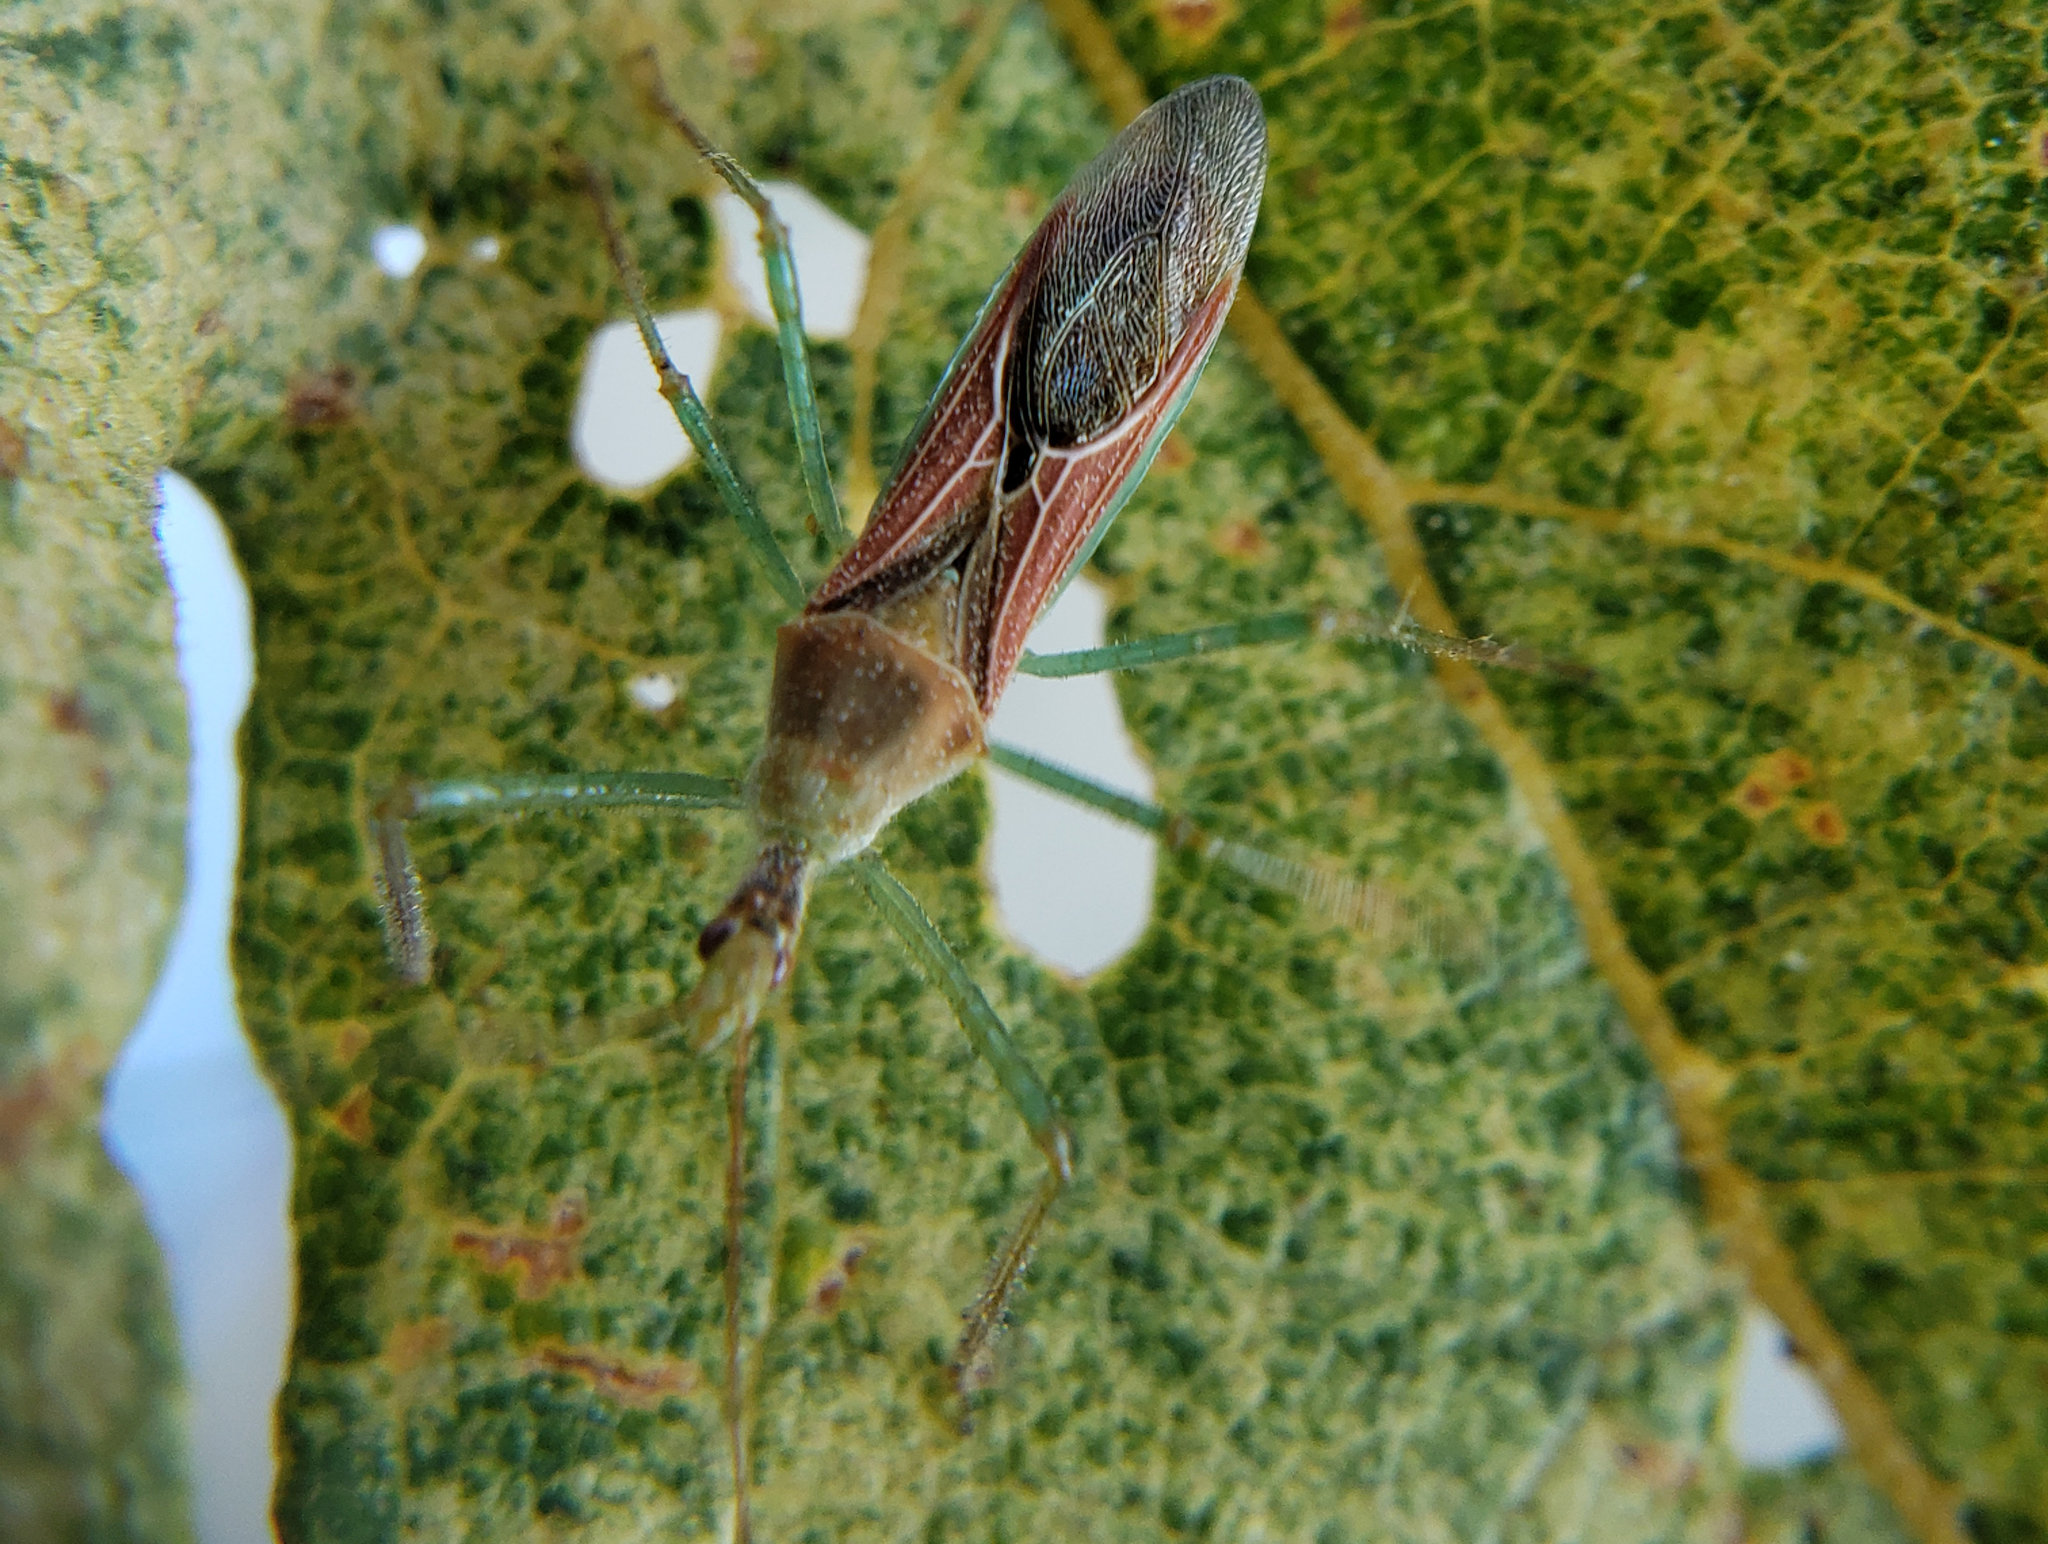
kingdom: Animalia
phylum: Arthropoda
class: Insecta
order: Hemiptera
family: Reduviidae
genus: Zelus
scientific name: Zelus renardii
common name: Assassin bug
